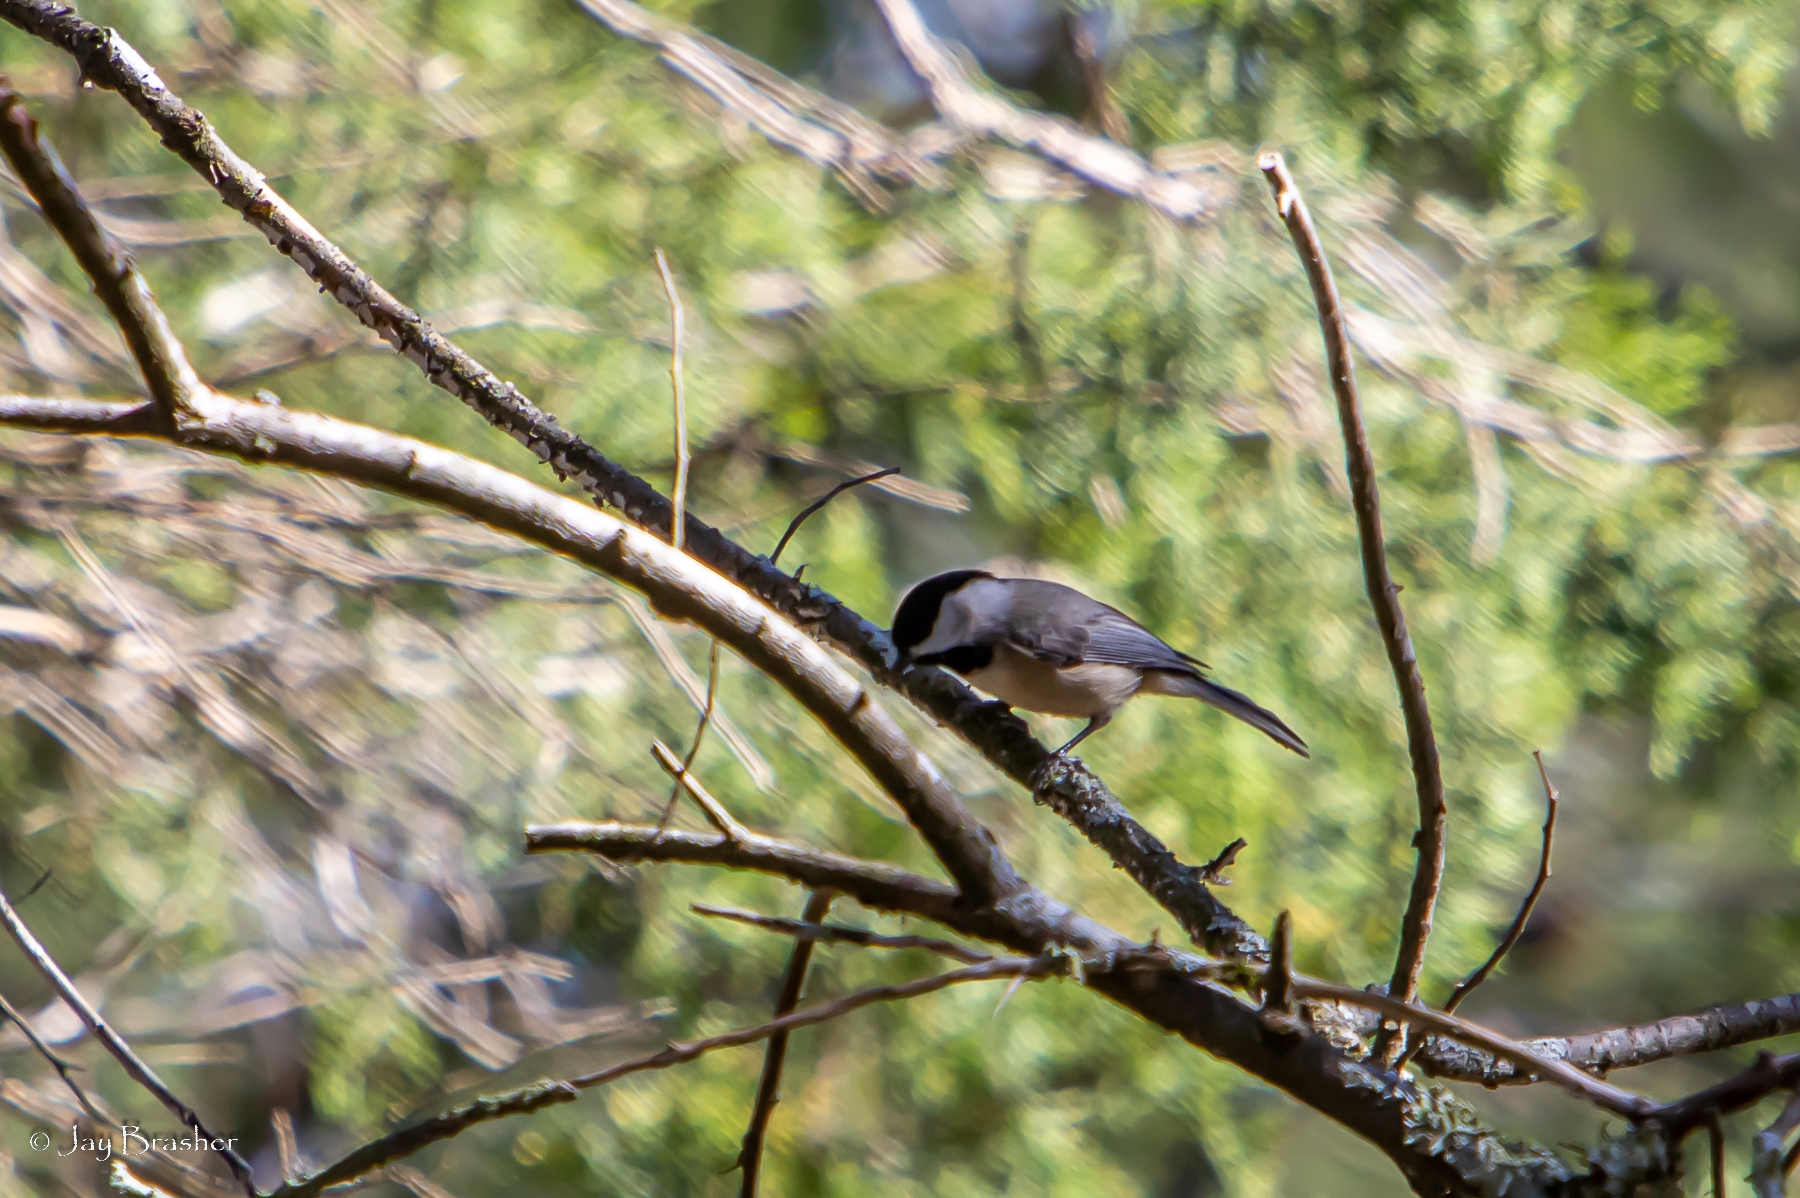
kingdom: Animalia
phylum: Chordata
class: Aves
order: Passeriformes
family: Paridae
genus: Poecile
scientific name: Poecile carolinensis
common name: Carolina chickadee
